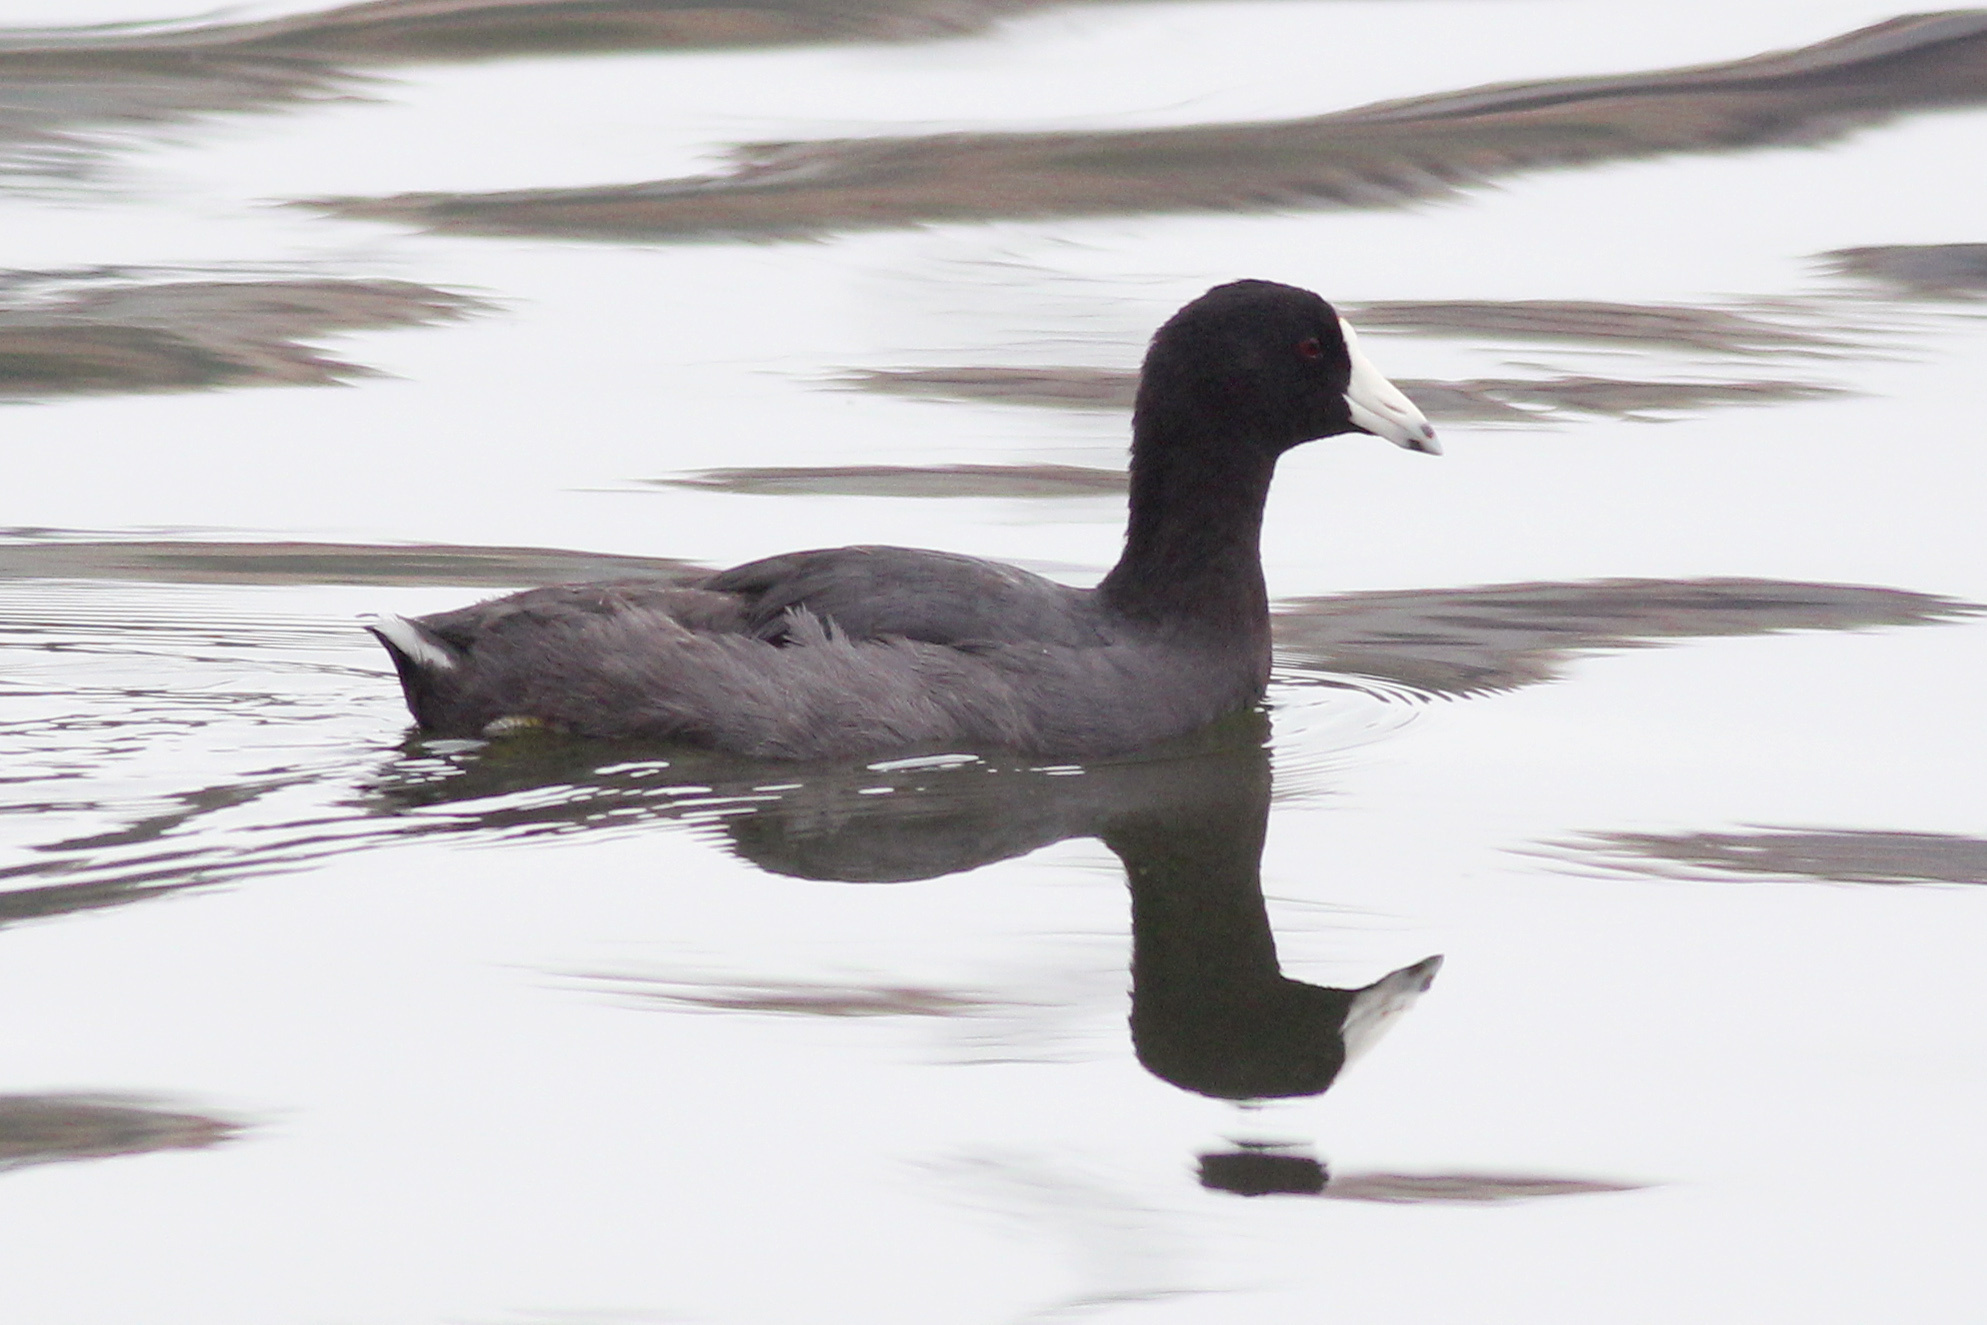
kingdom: Animalia
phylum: Chordata
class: Aves
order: Gruiformes
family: Rallidae
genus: Fulica
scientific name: Fulica americana
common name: American coot
